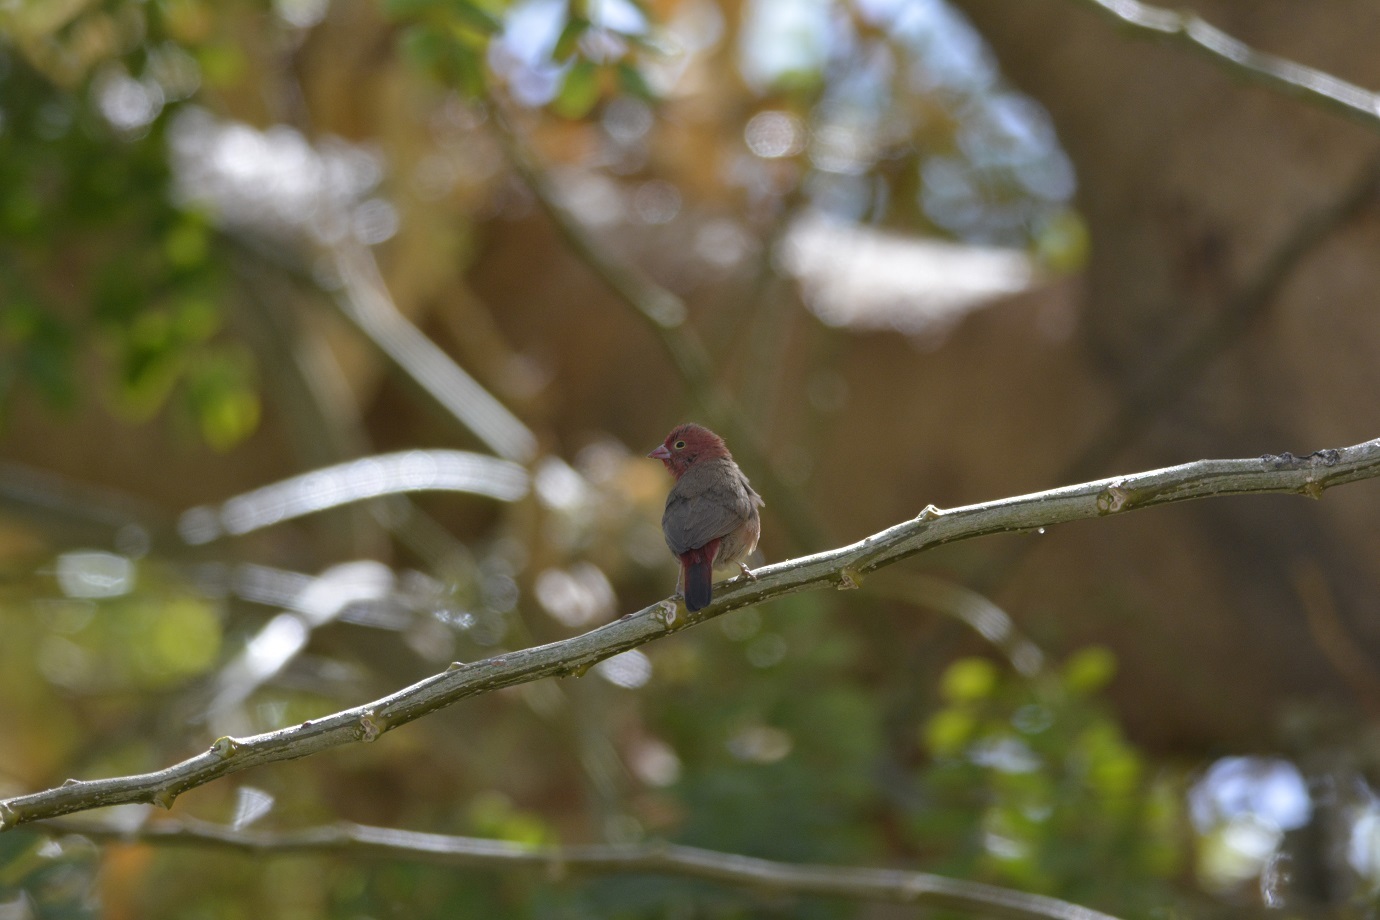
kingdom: Animalia
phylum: Chordata
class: Aves
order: Passeriformes
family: Estrildidae
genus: Lagonosticta
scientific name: Lagonosticta senegala
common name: Red-billed firefinch
